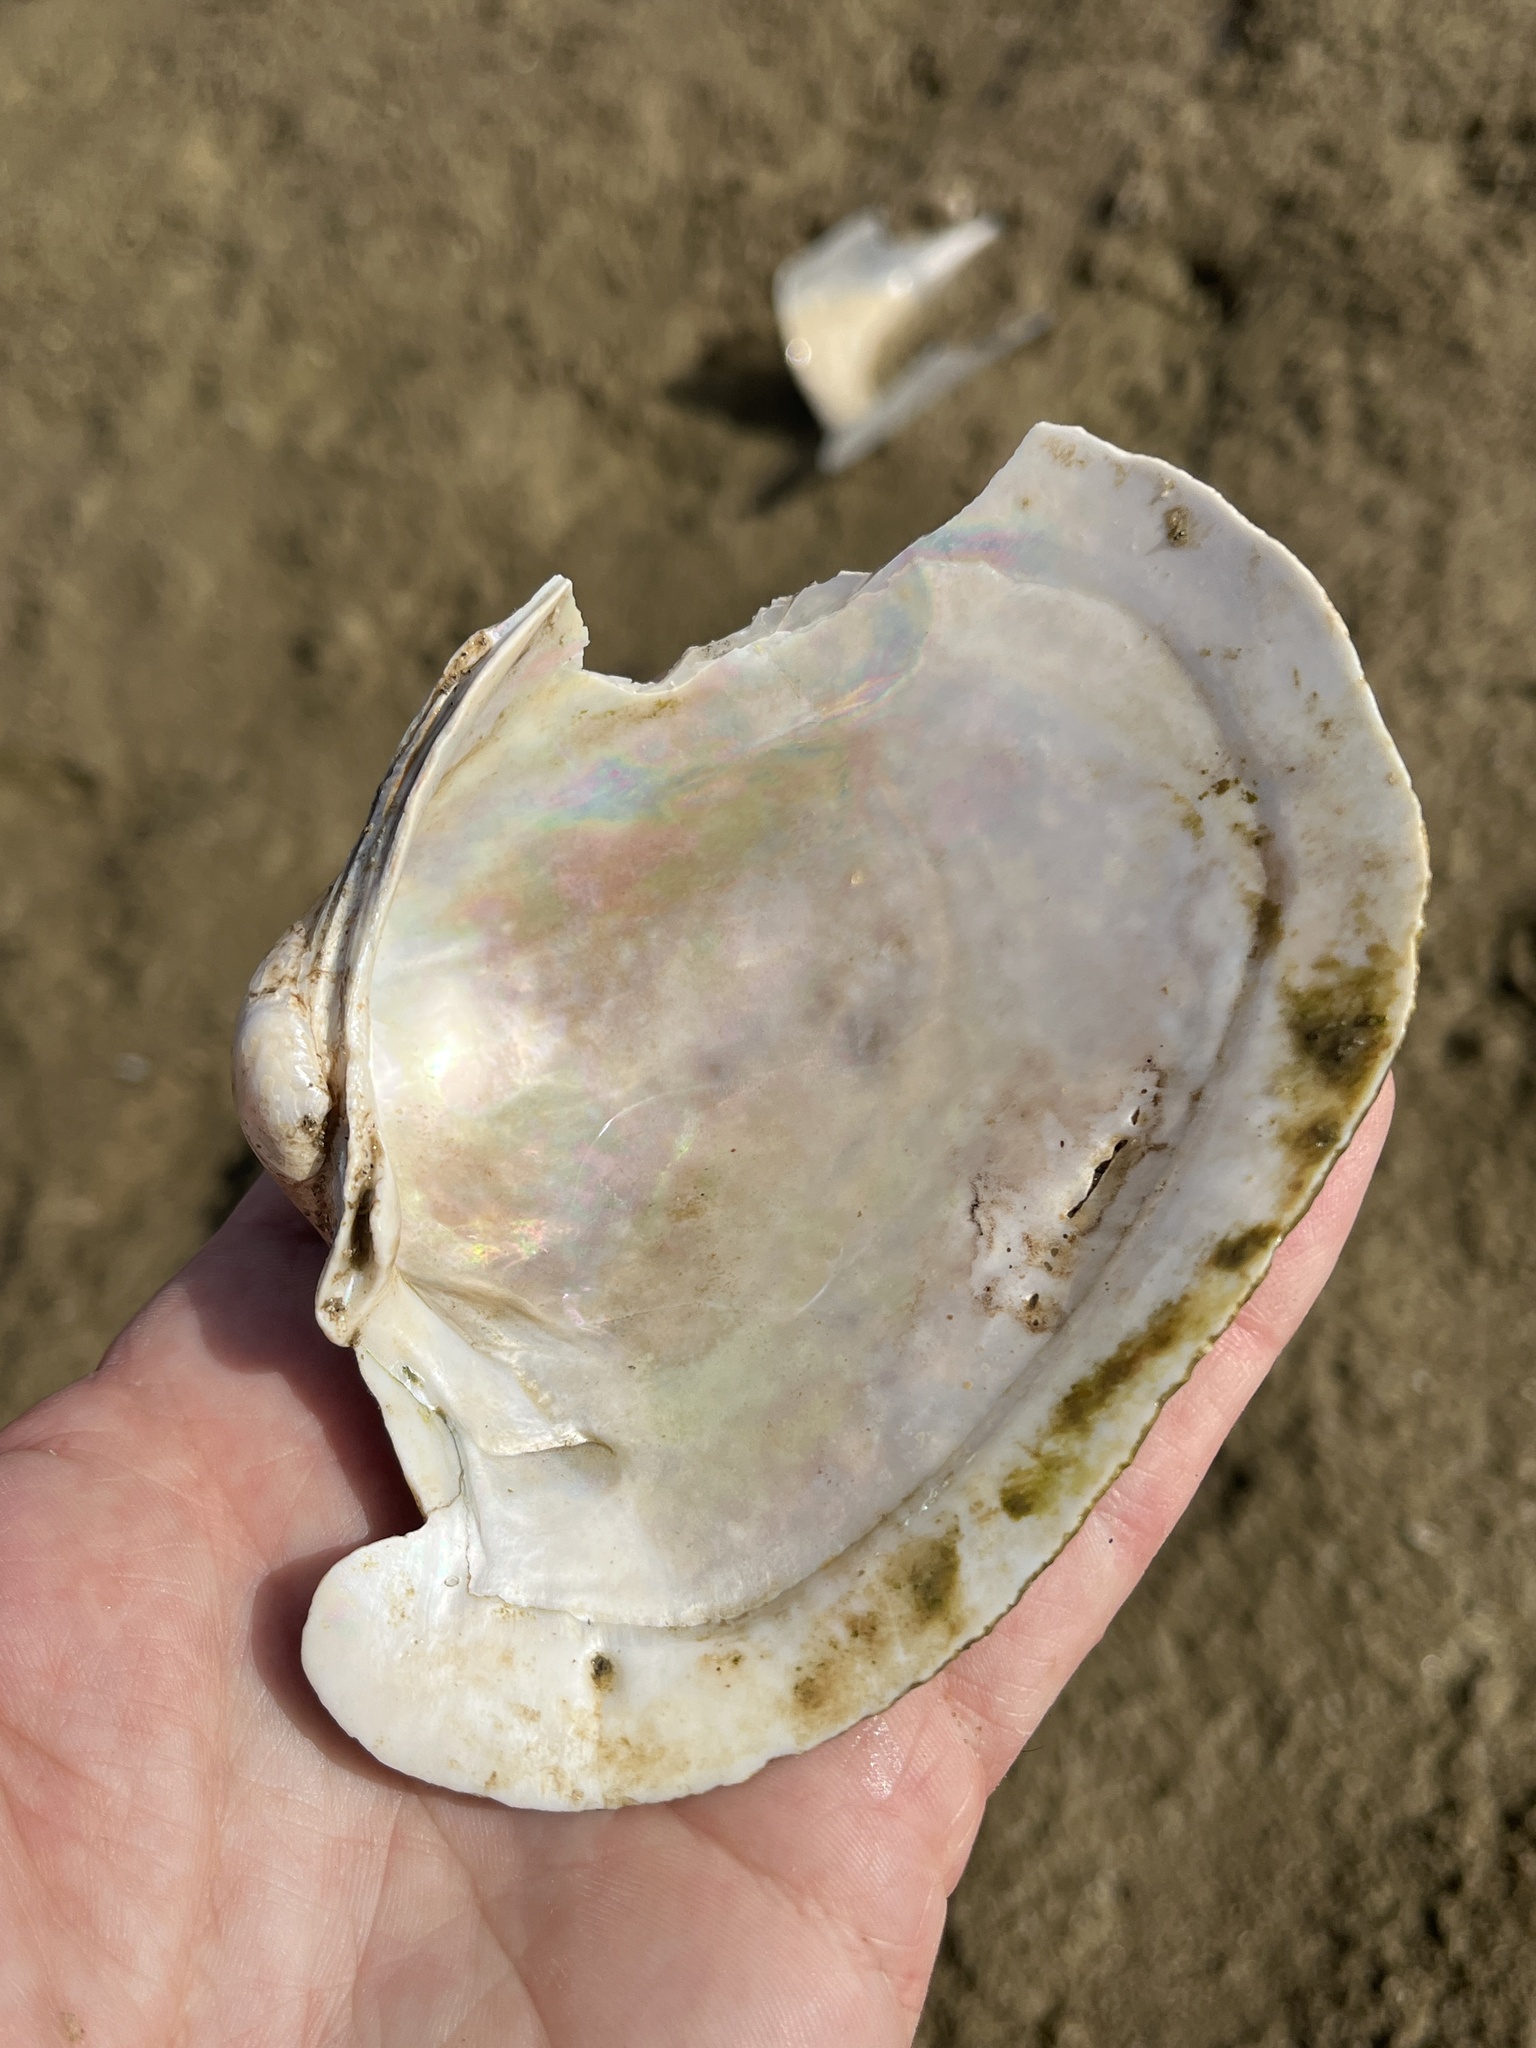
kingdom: Animalia
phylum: Mollusca
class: Bivalvia
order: Unionida
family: Unionidae
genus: Potamilus
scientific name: Potamilus capax
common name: Fat pocketbook
